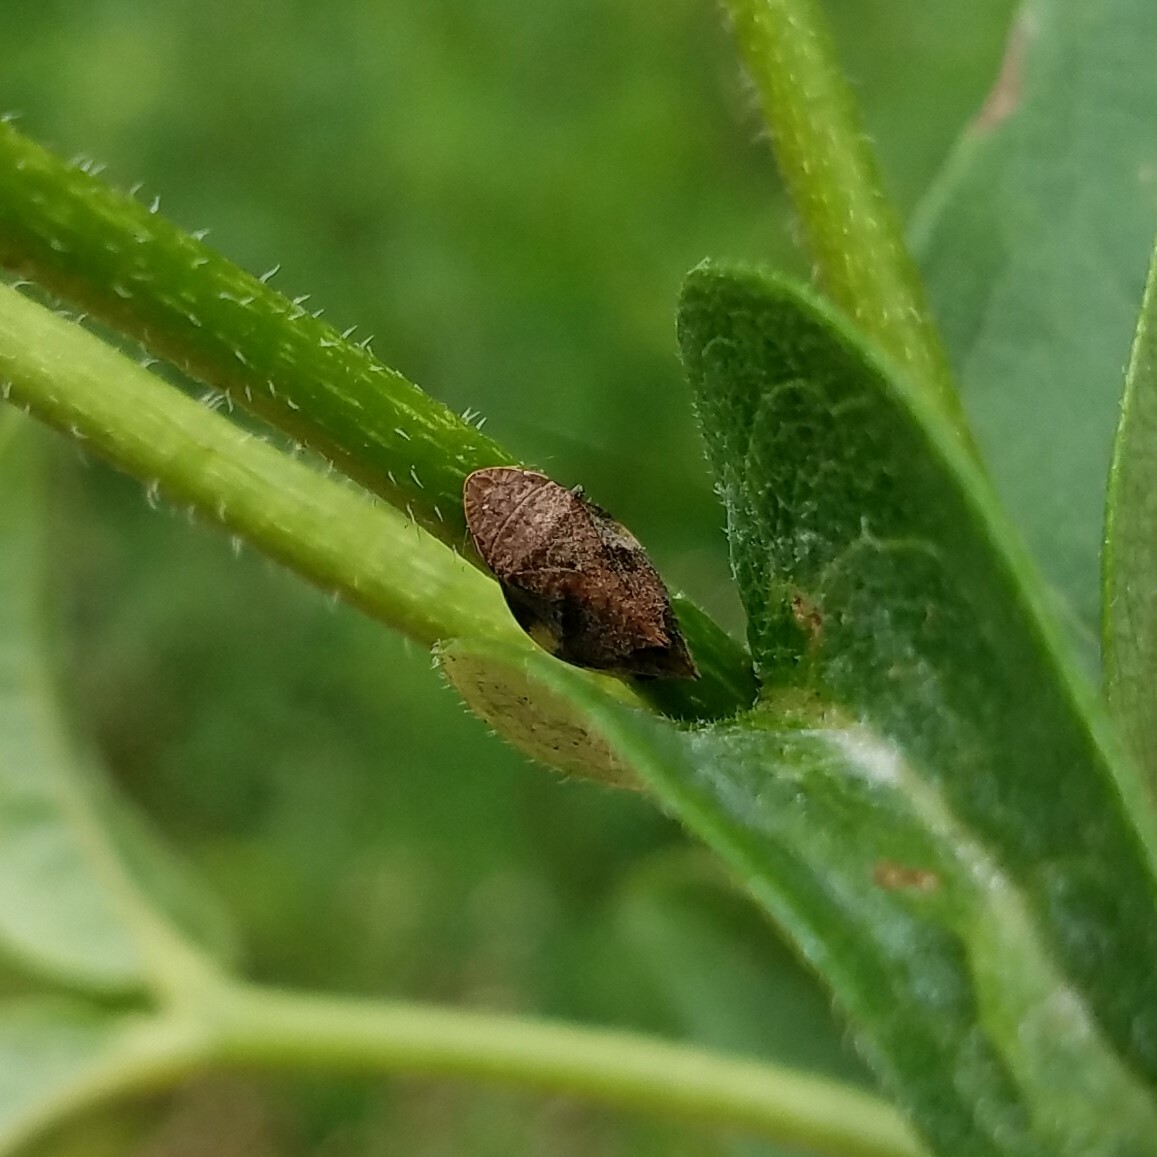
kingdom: Animalia
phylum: Arthropoda
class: Insecta
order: Hemiptera
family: Aphrophoridae
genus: Lepyronia
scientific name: Lepyronia quadrangularis
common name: Diamond-backed spittlebug
